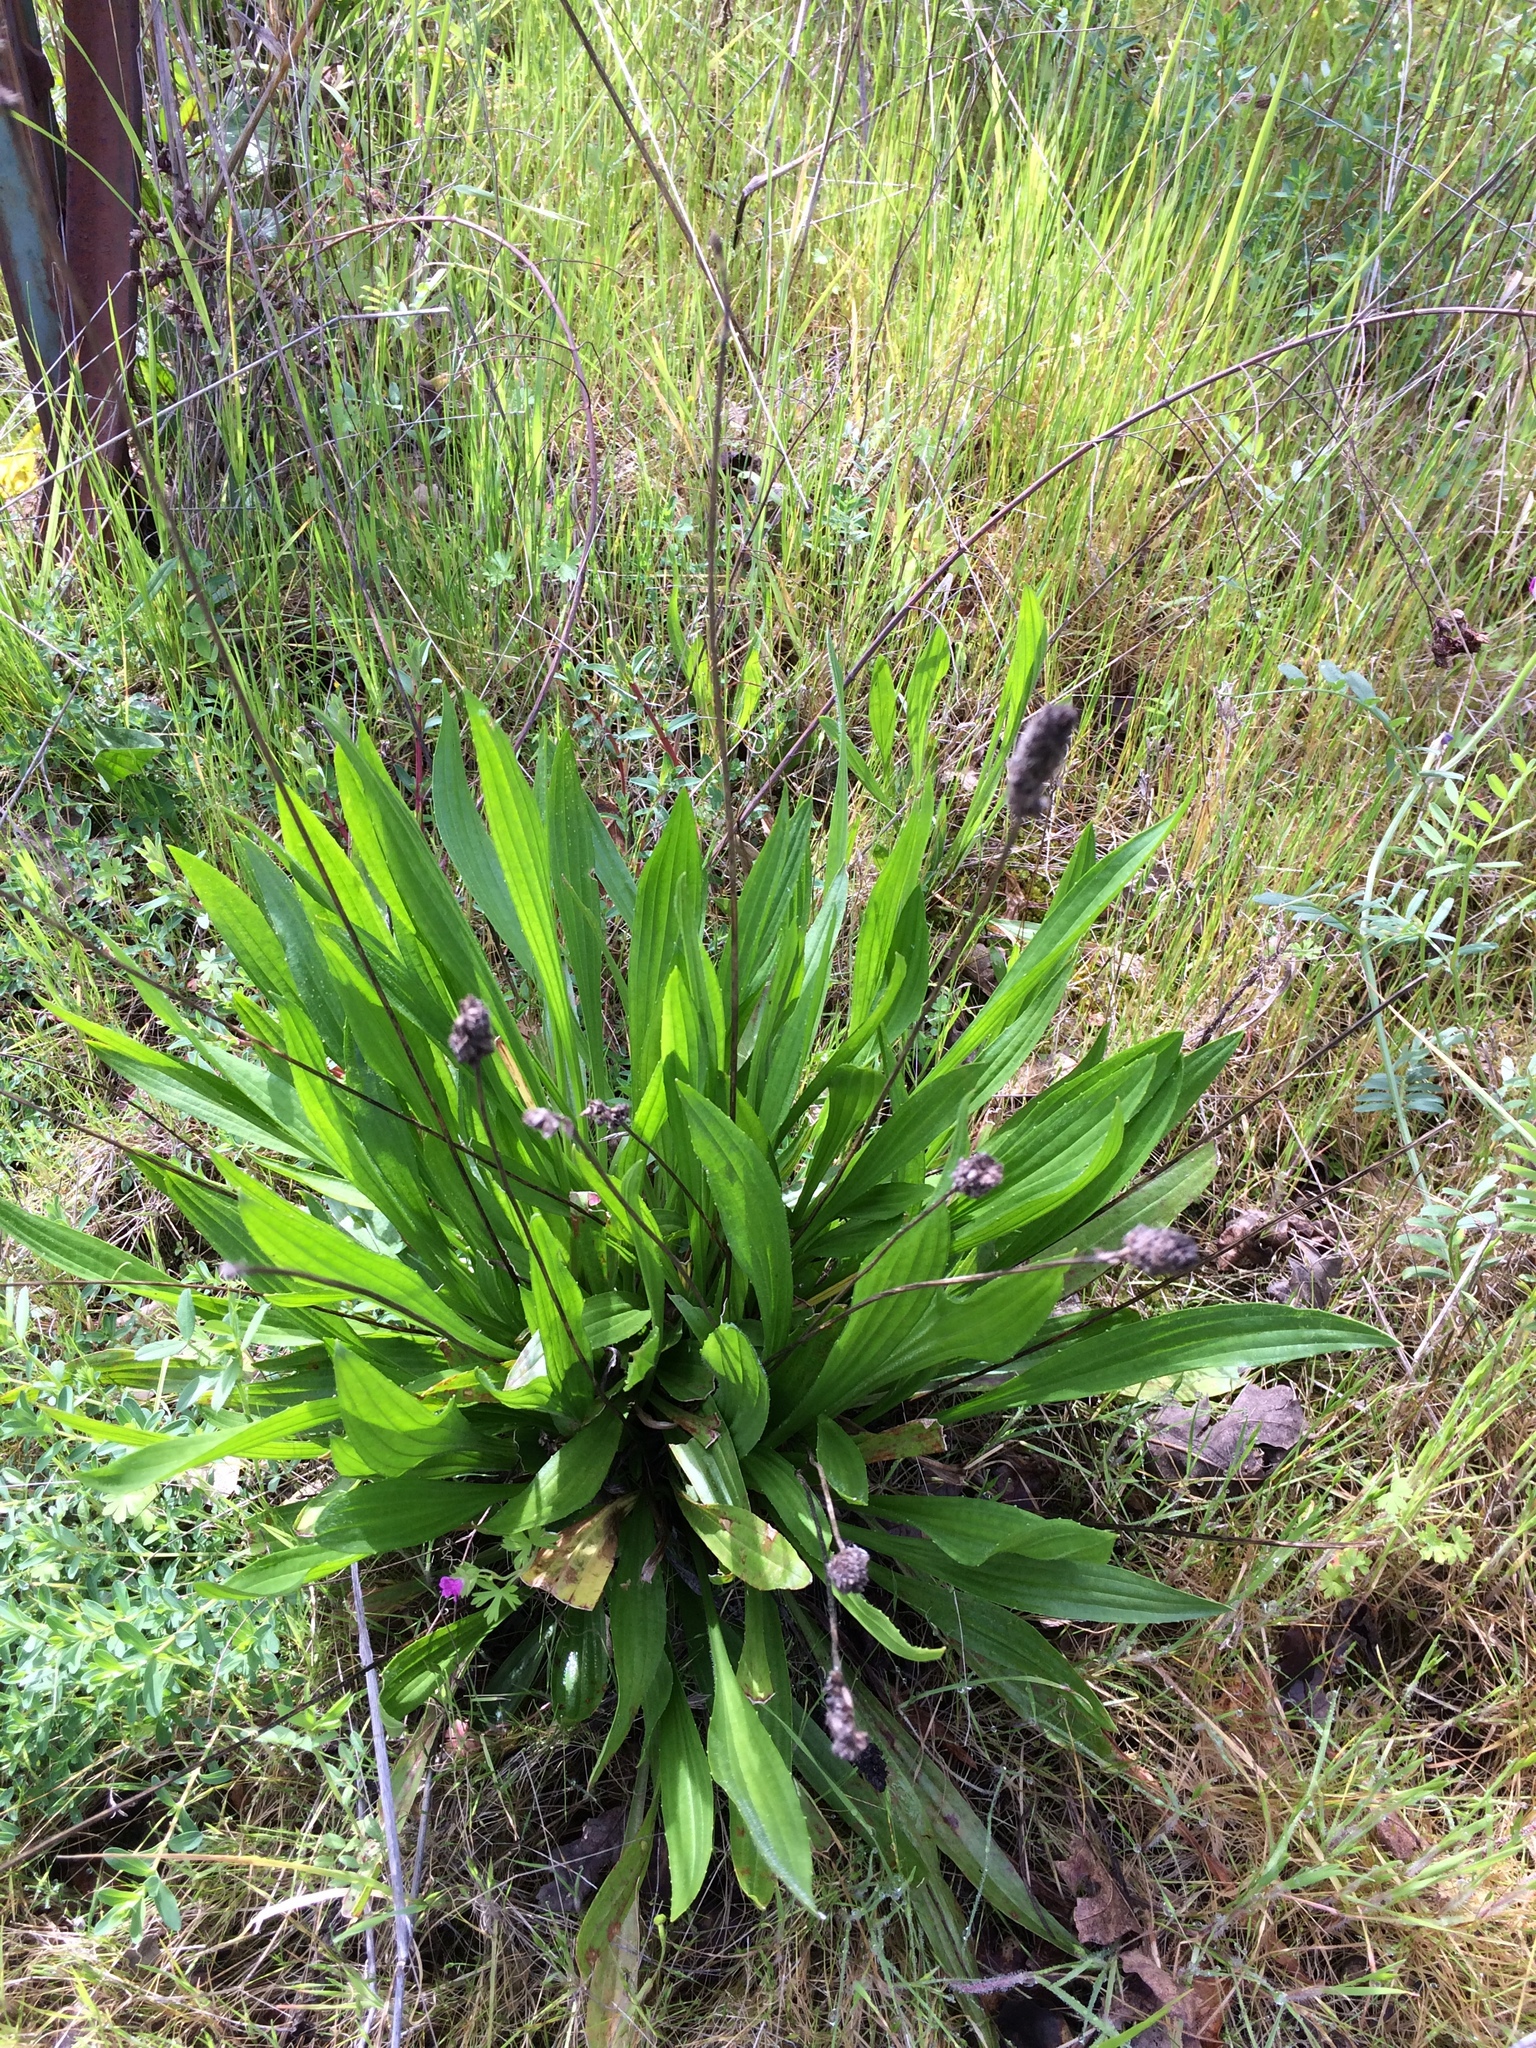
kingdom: Plantae
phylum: Tracheophyta
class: Magnoliopsida
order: Lamiales
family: Plantaginaceae
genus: Plantago
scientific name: Plantago lanceolata
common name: Ribwort plantain
